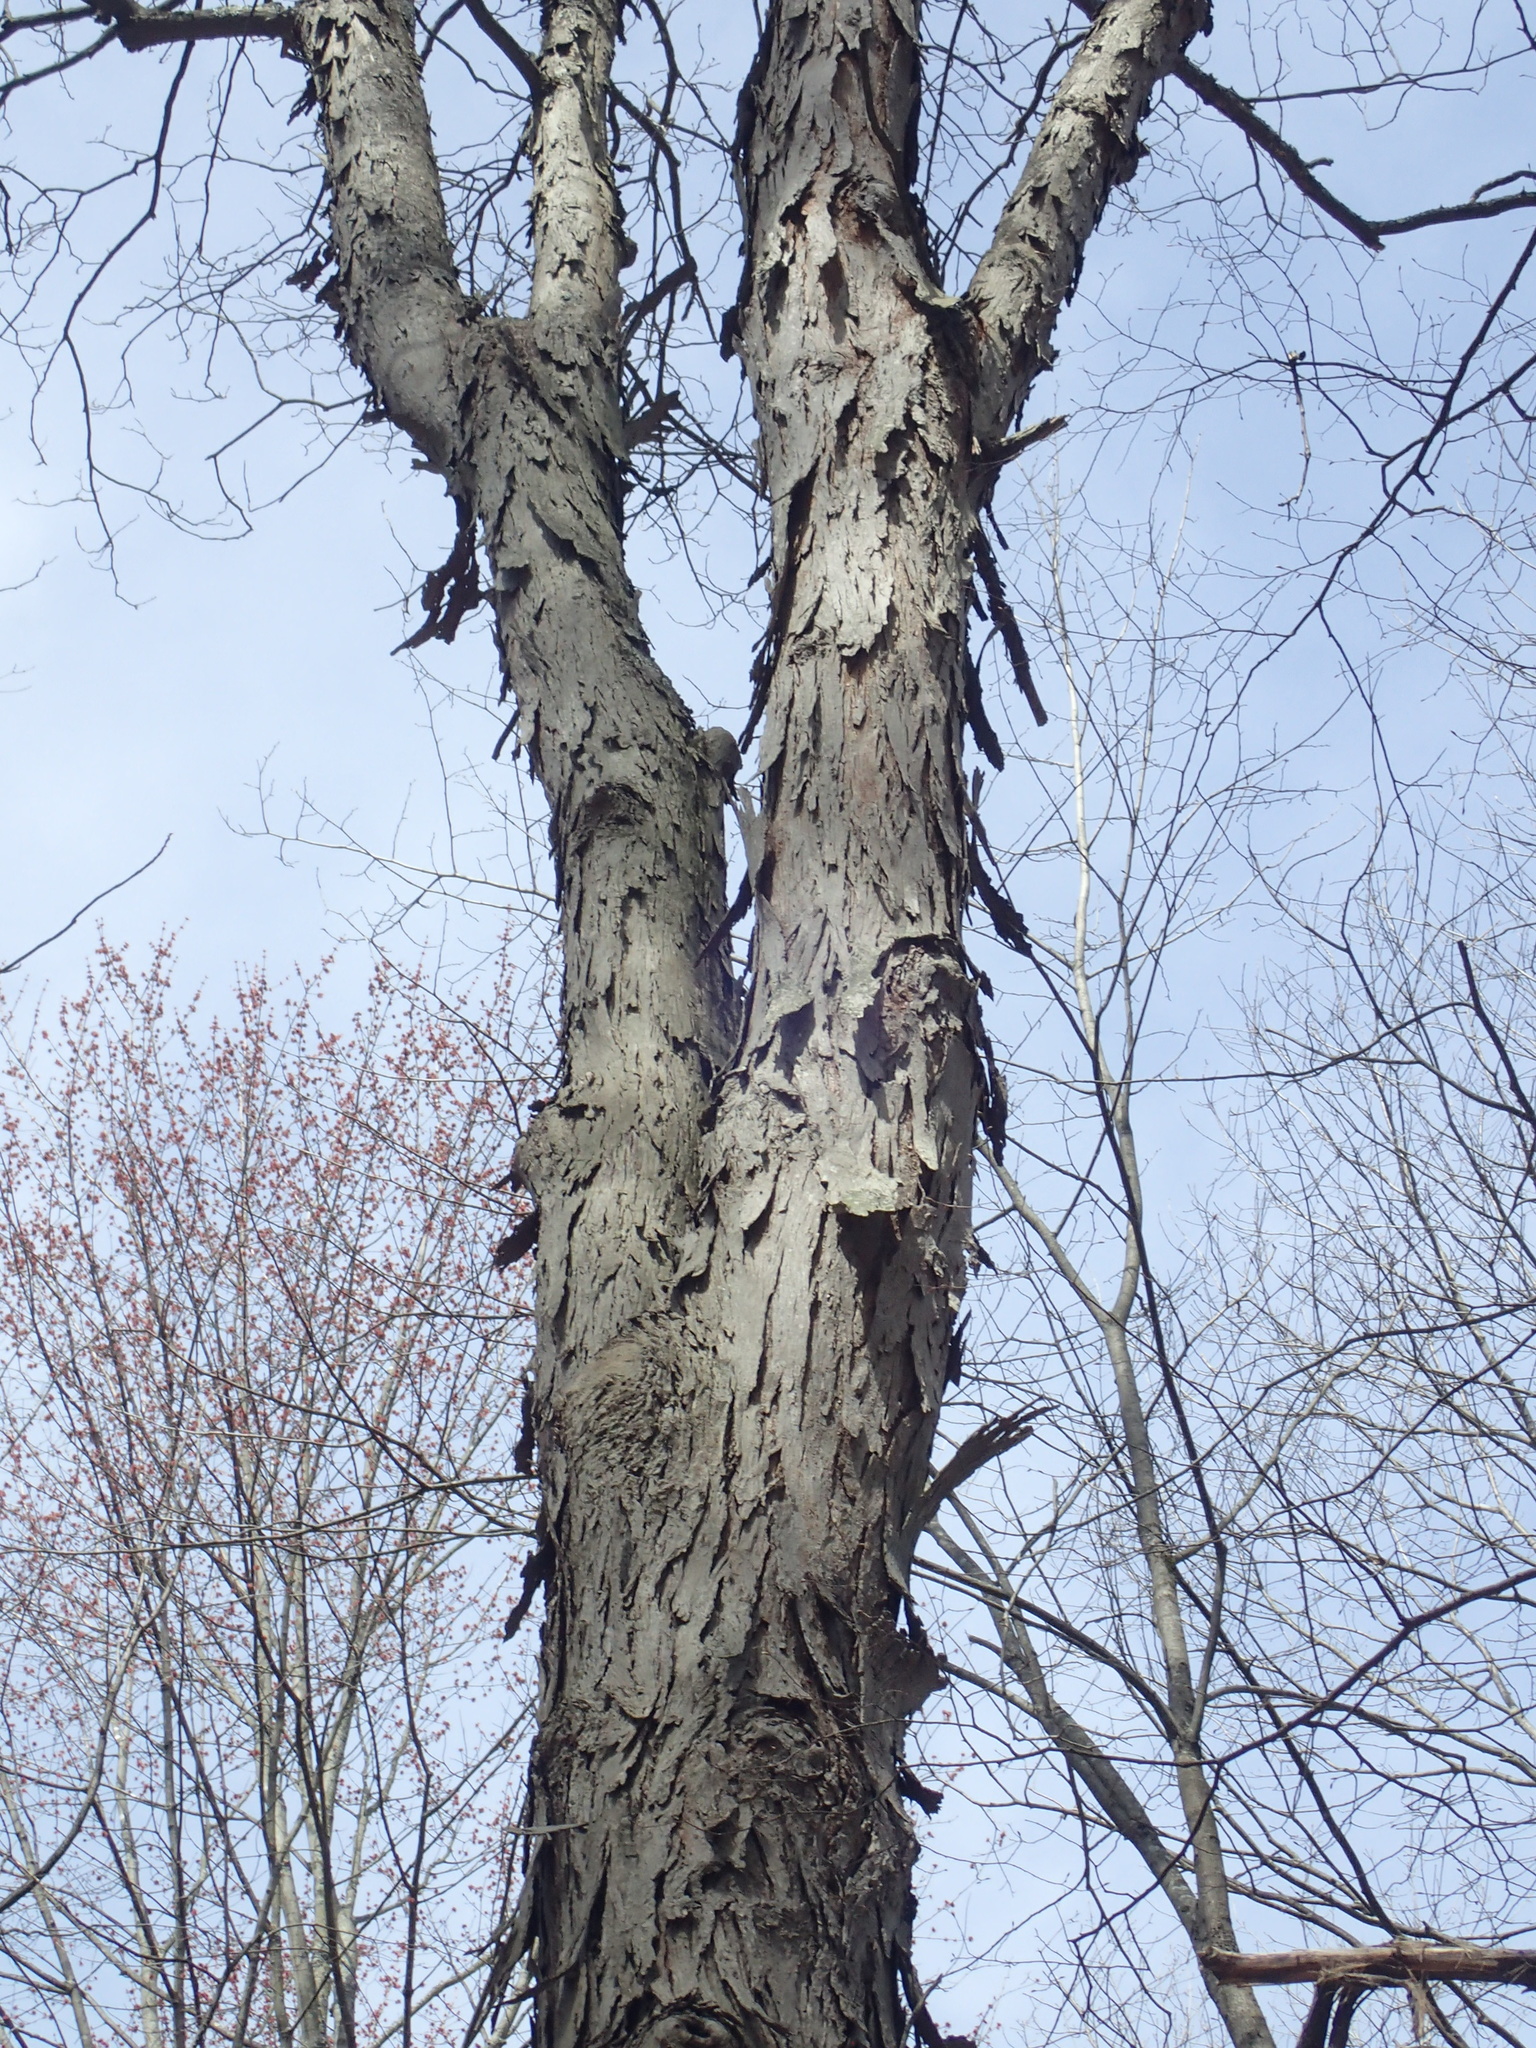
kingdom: Plantae
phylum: Tracheophyta
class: Magnoliopsida
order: Fagales
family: Juglandaceae
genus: Carya
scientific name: Carya ovata
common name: Shagbark hickory
